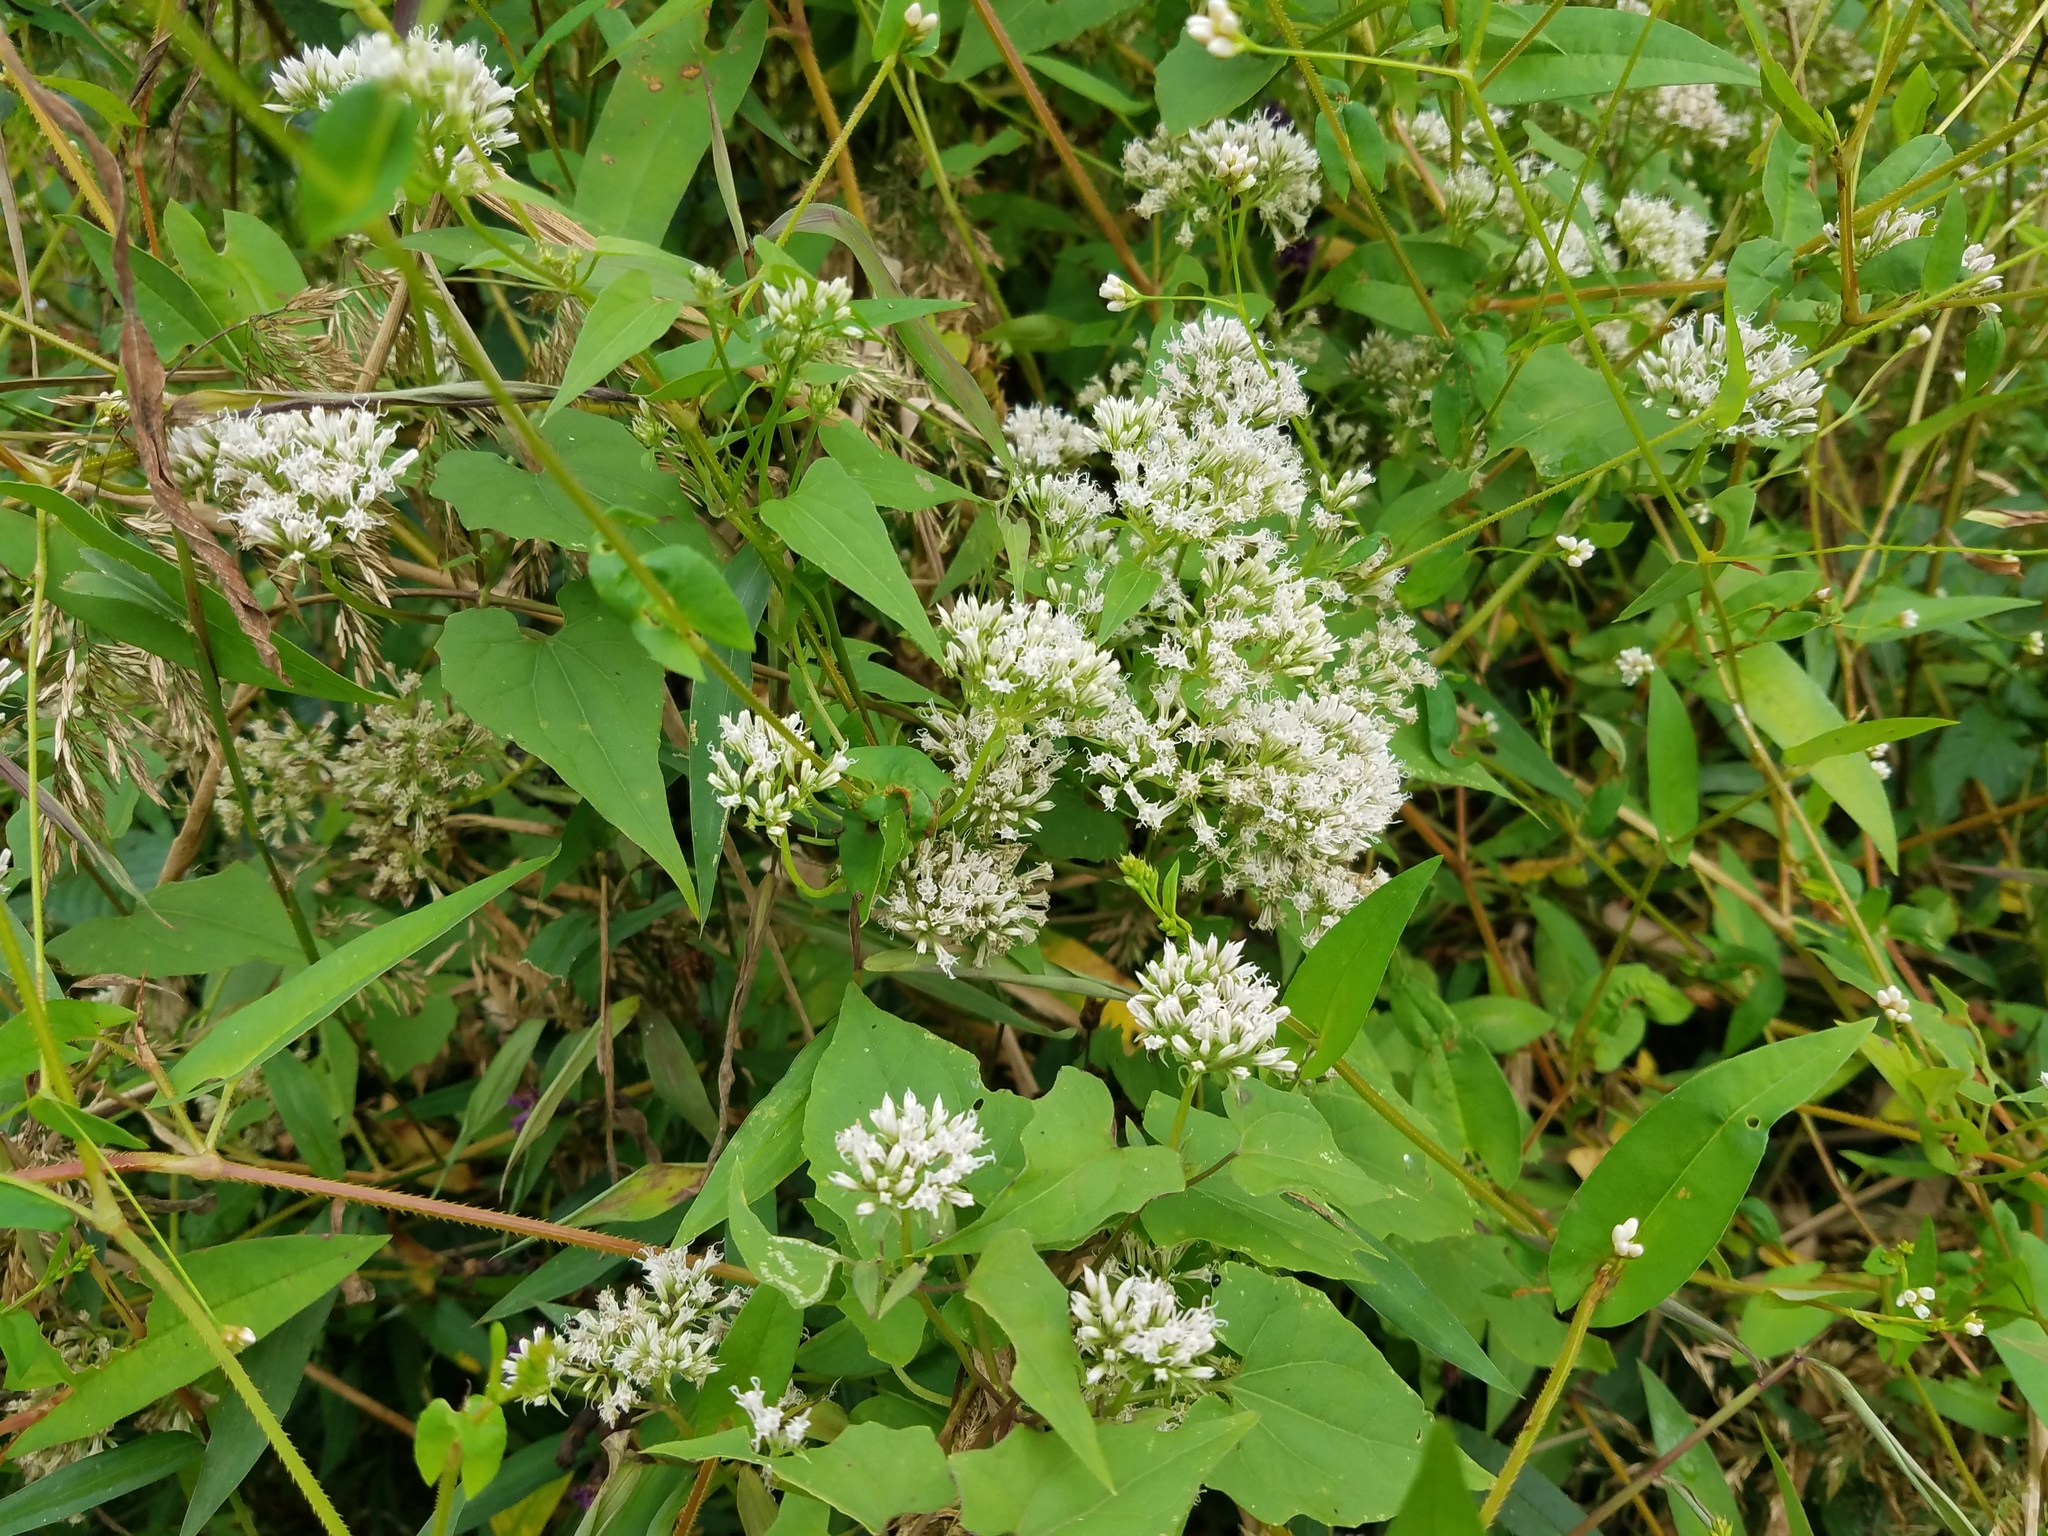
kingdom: Plantae
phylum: Tracheophyta
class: Magnoliopsida
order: Asterales
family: Asteraceae
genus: Mikania
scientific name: Mikania scandens
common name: Climbing hempvine
